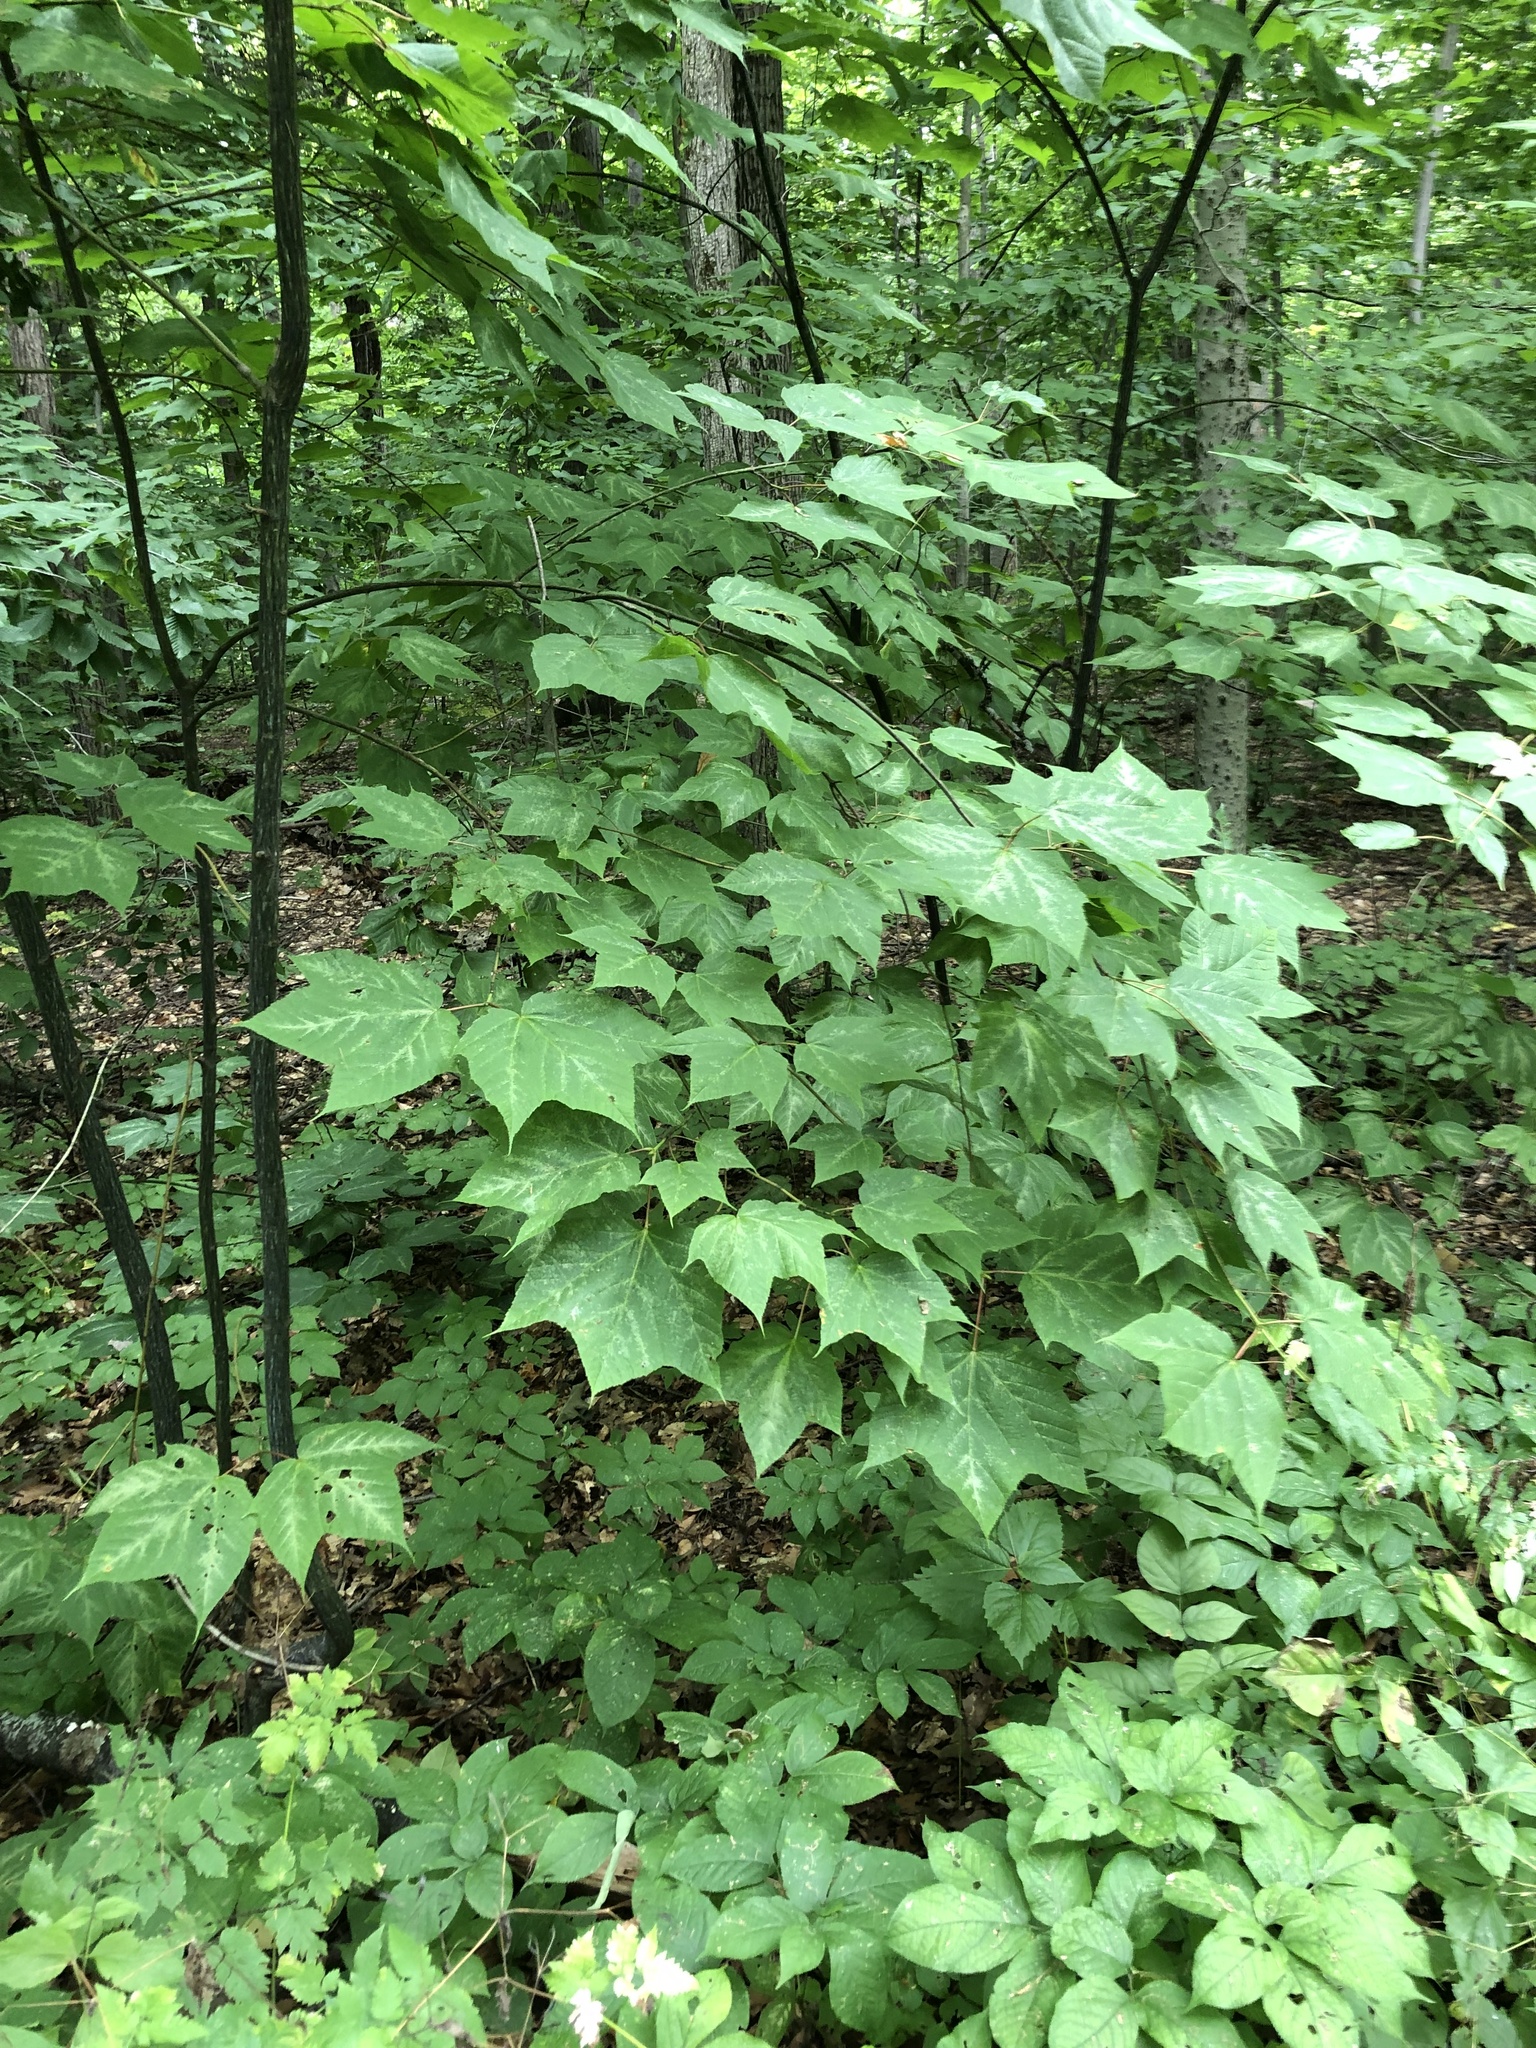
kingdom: Plantae
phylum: Tracheophyta
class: Magnoliopsida
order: Sapindales
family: Sapindaceae
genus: Acer
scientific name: Acer pensylvanicum
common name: Moosewood
